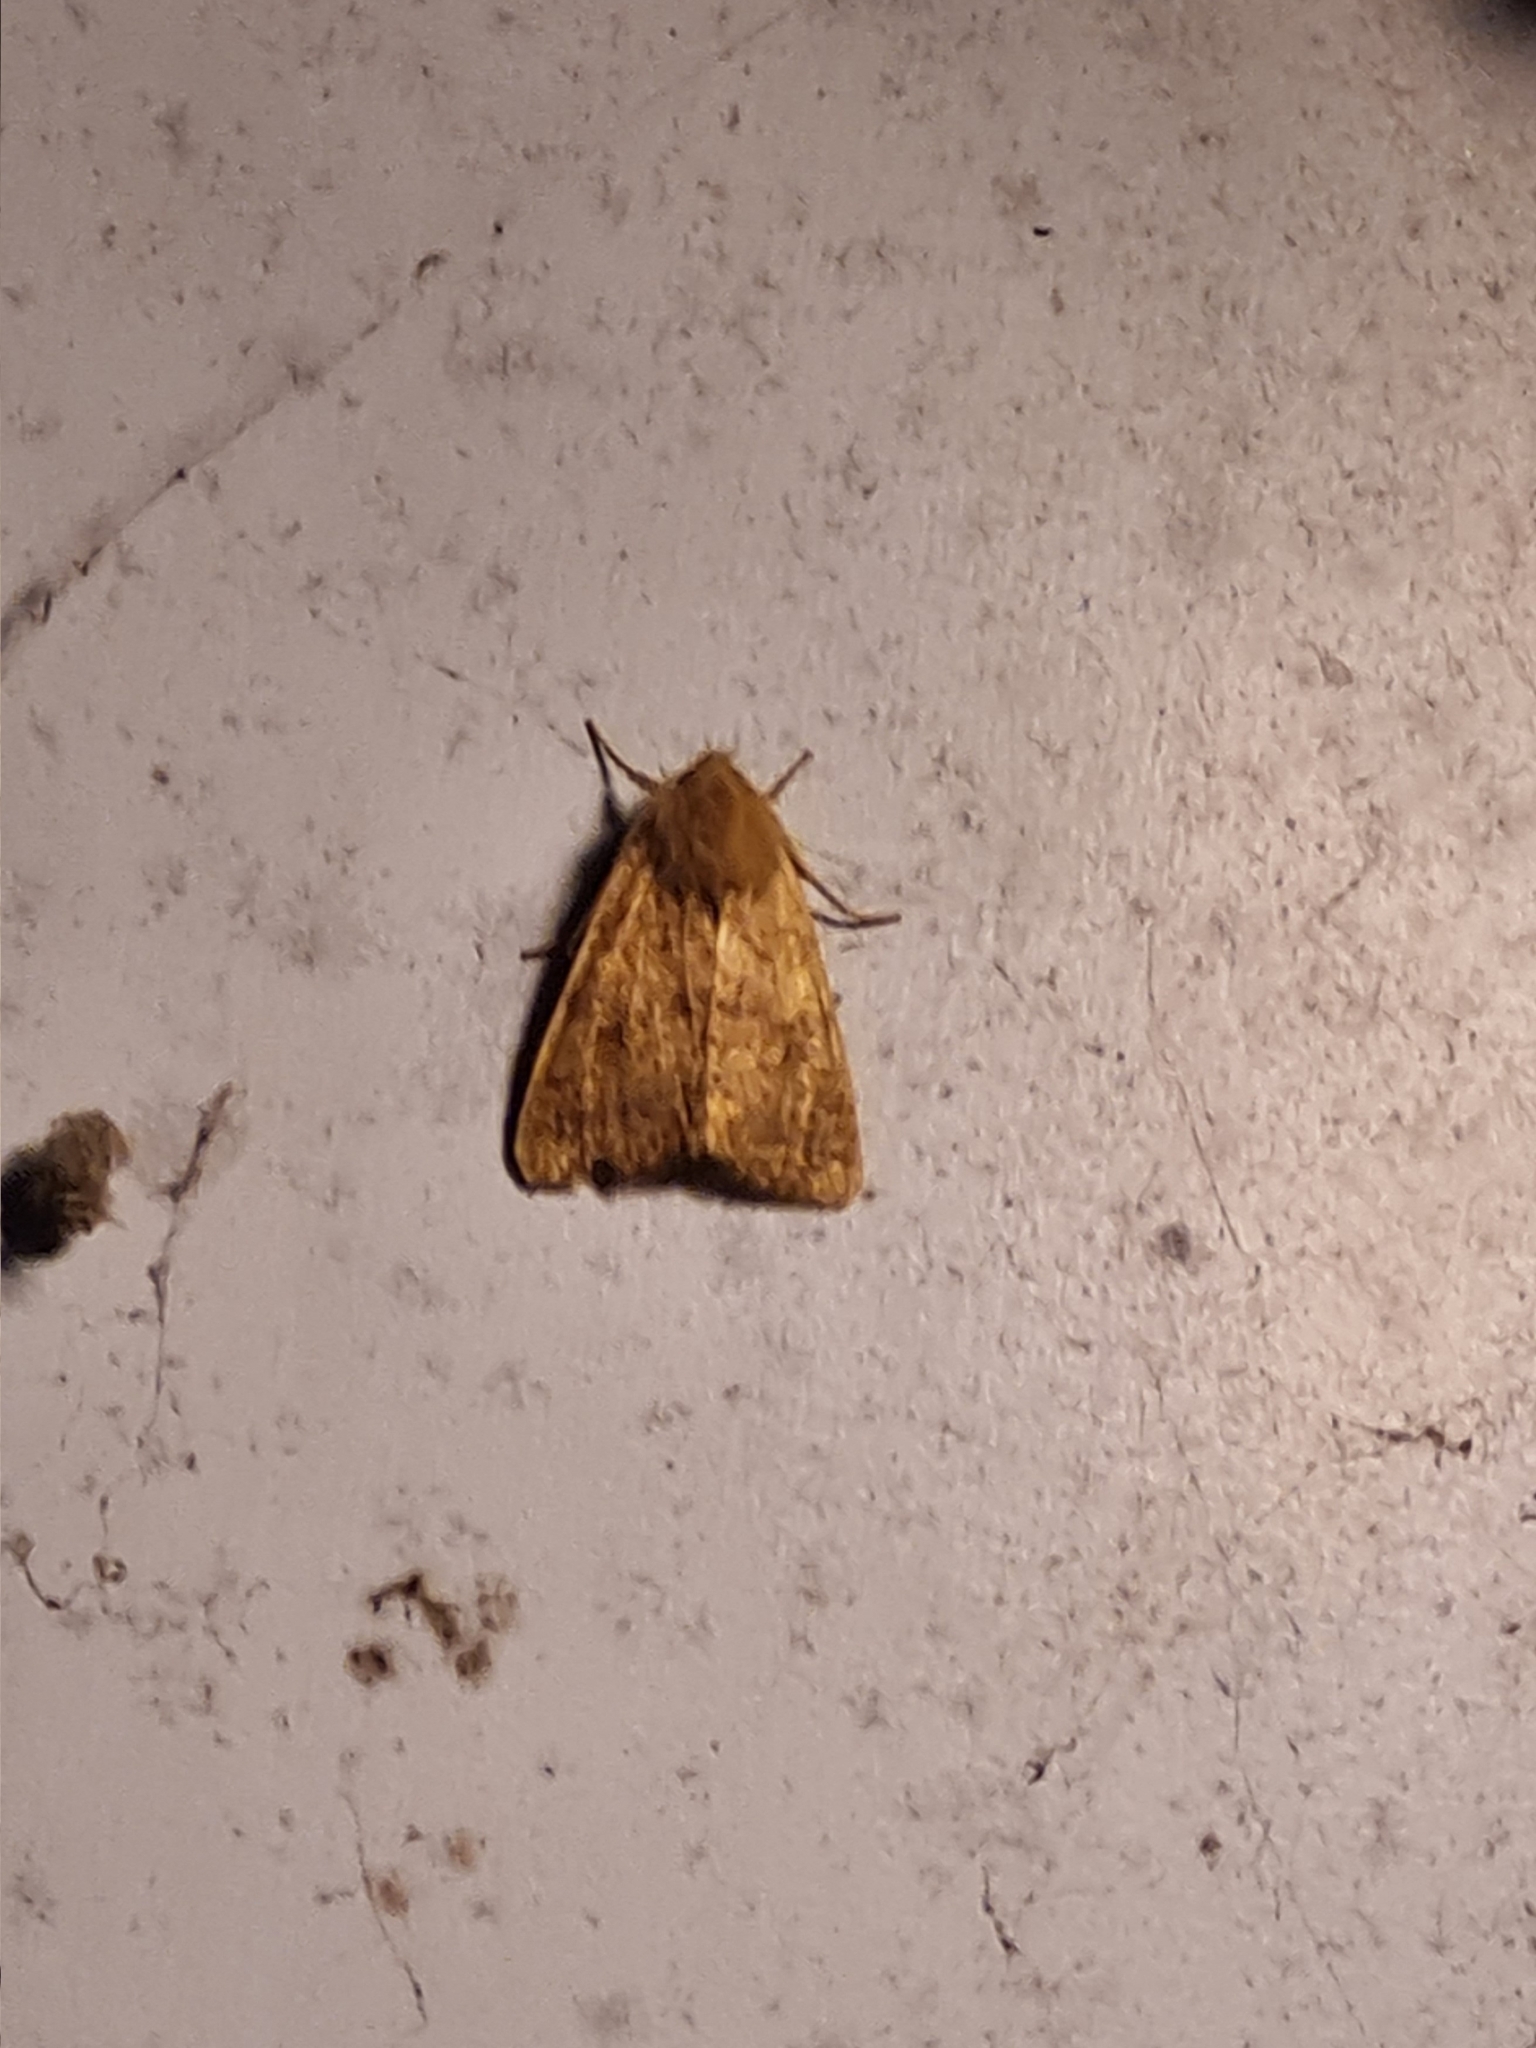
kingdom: Animalia
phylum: Arthropoda
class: Insecta
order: Lepidoptera
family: Noctuidae
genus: Agrochola
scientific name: Agrochola bicolorago
